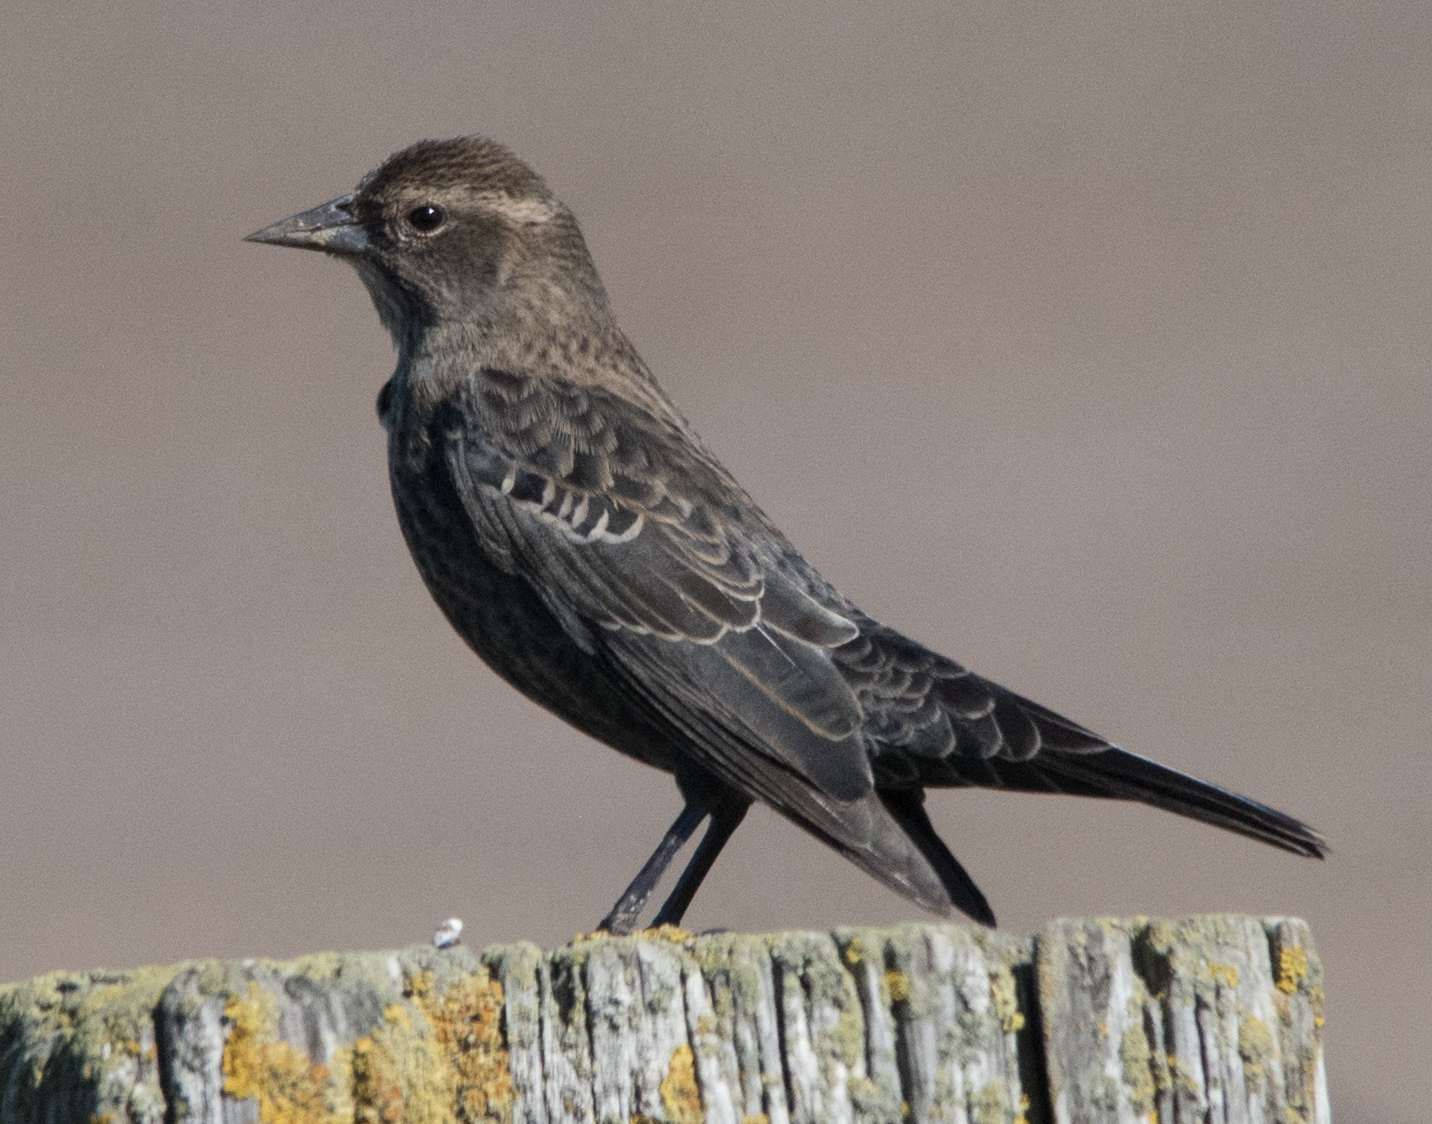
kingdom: Animalia
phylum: Chordata
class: Aves
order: Passeriformes
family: Icteridae
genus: Agelaius
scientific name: Agelaius tricolor
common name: Tricolored blackbird
